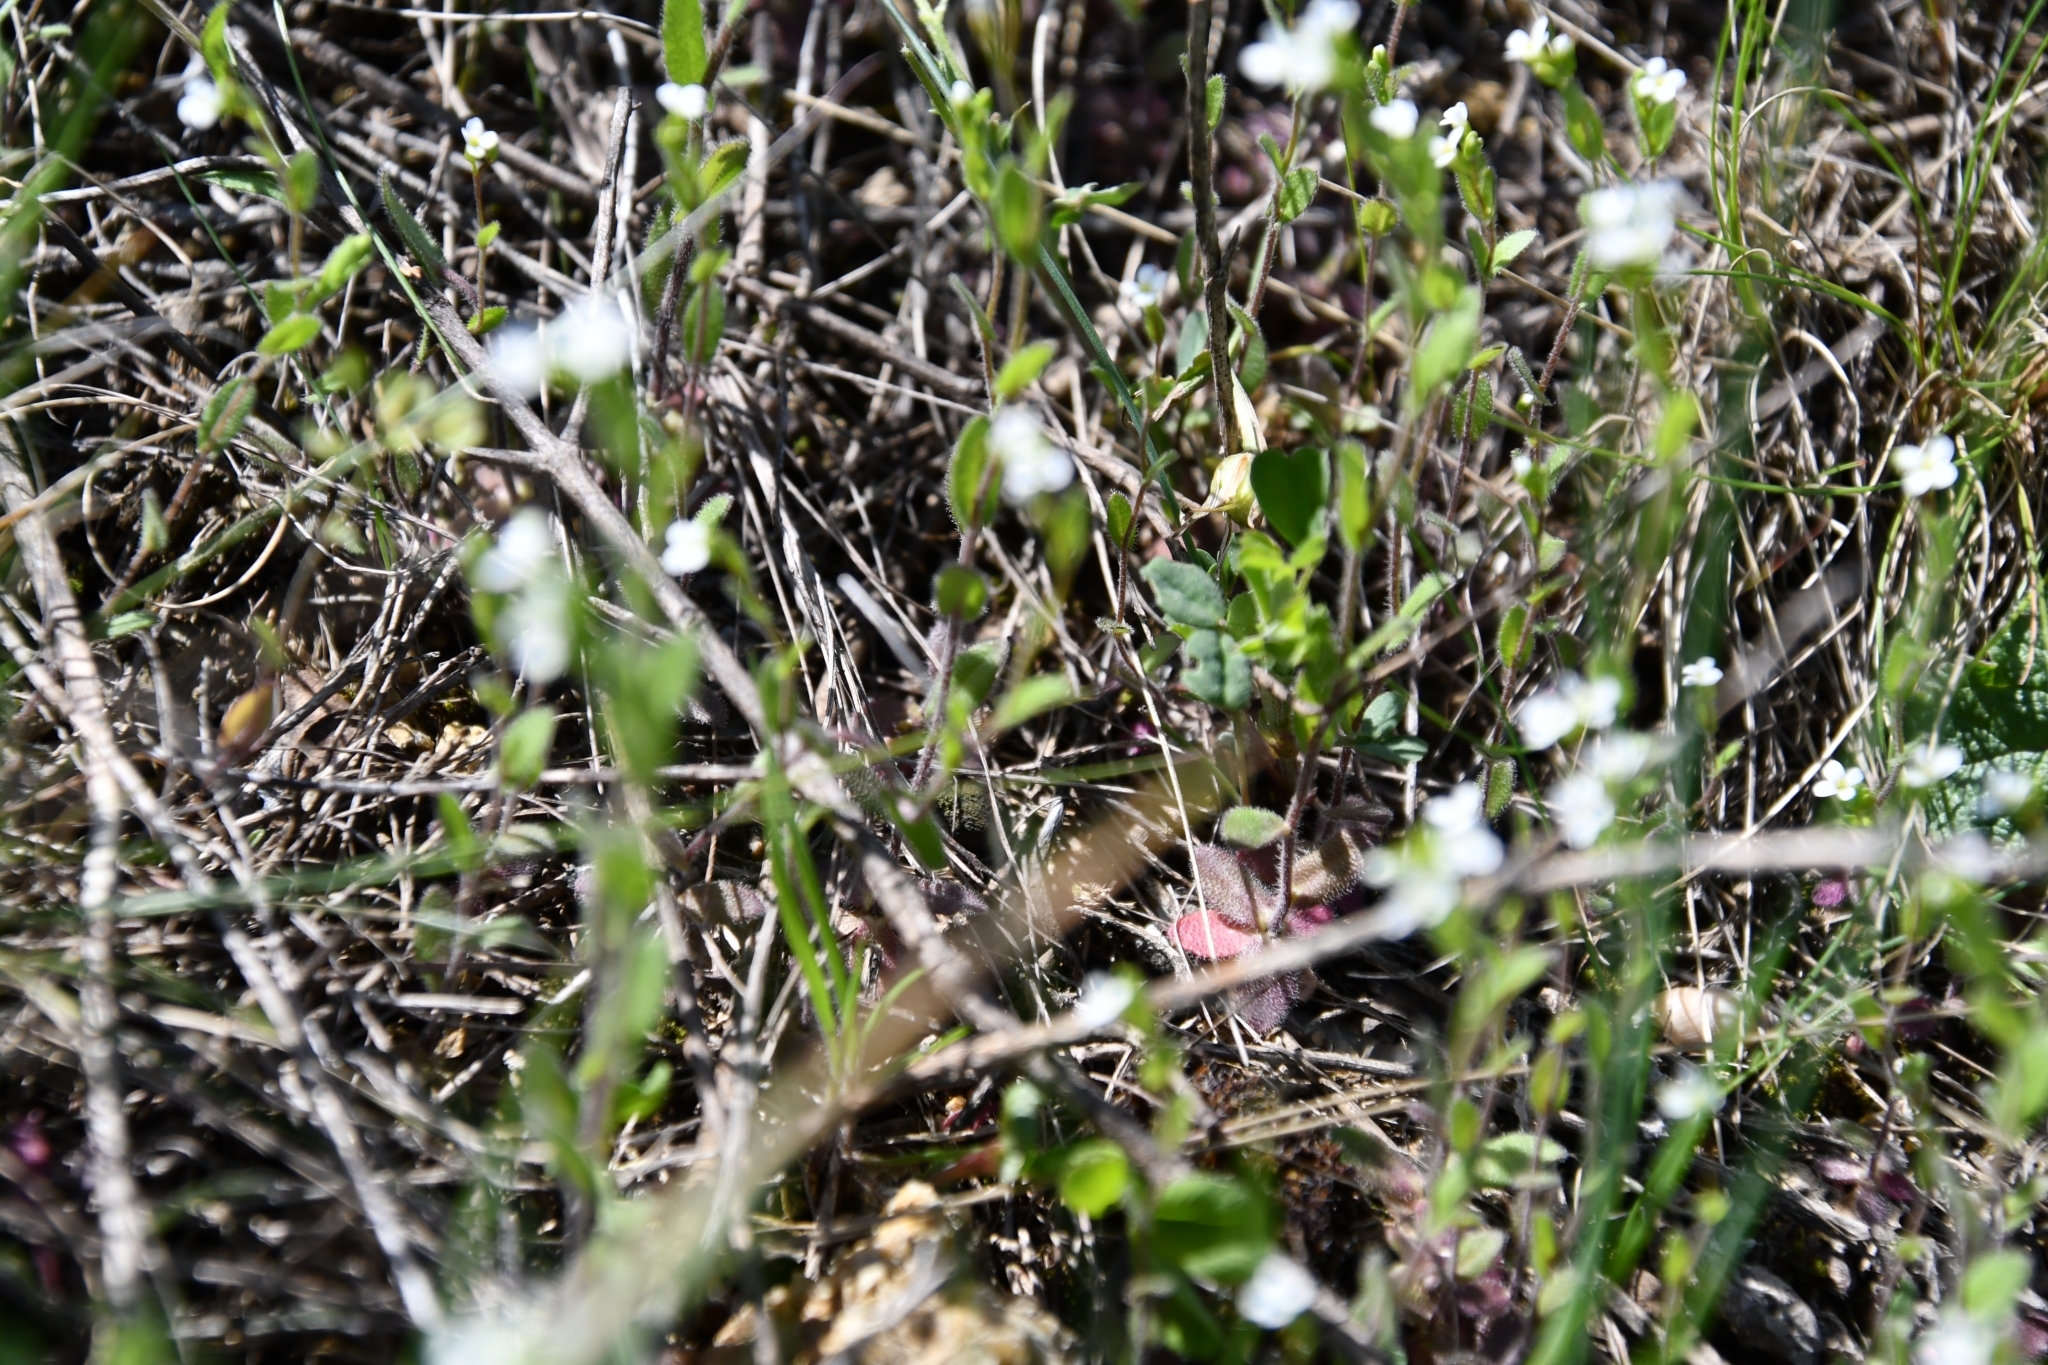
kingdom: Plantae
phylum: Tracheophyta
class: Magnoliopsida
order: Brassicales
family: Brassicaceae
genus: Arabis
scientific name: Arabis auriculata
